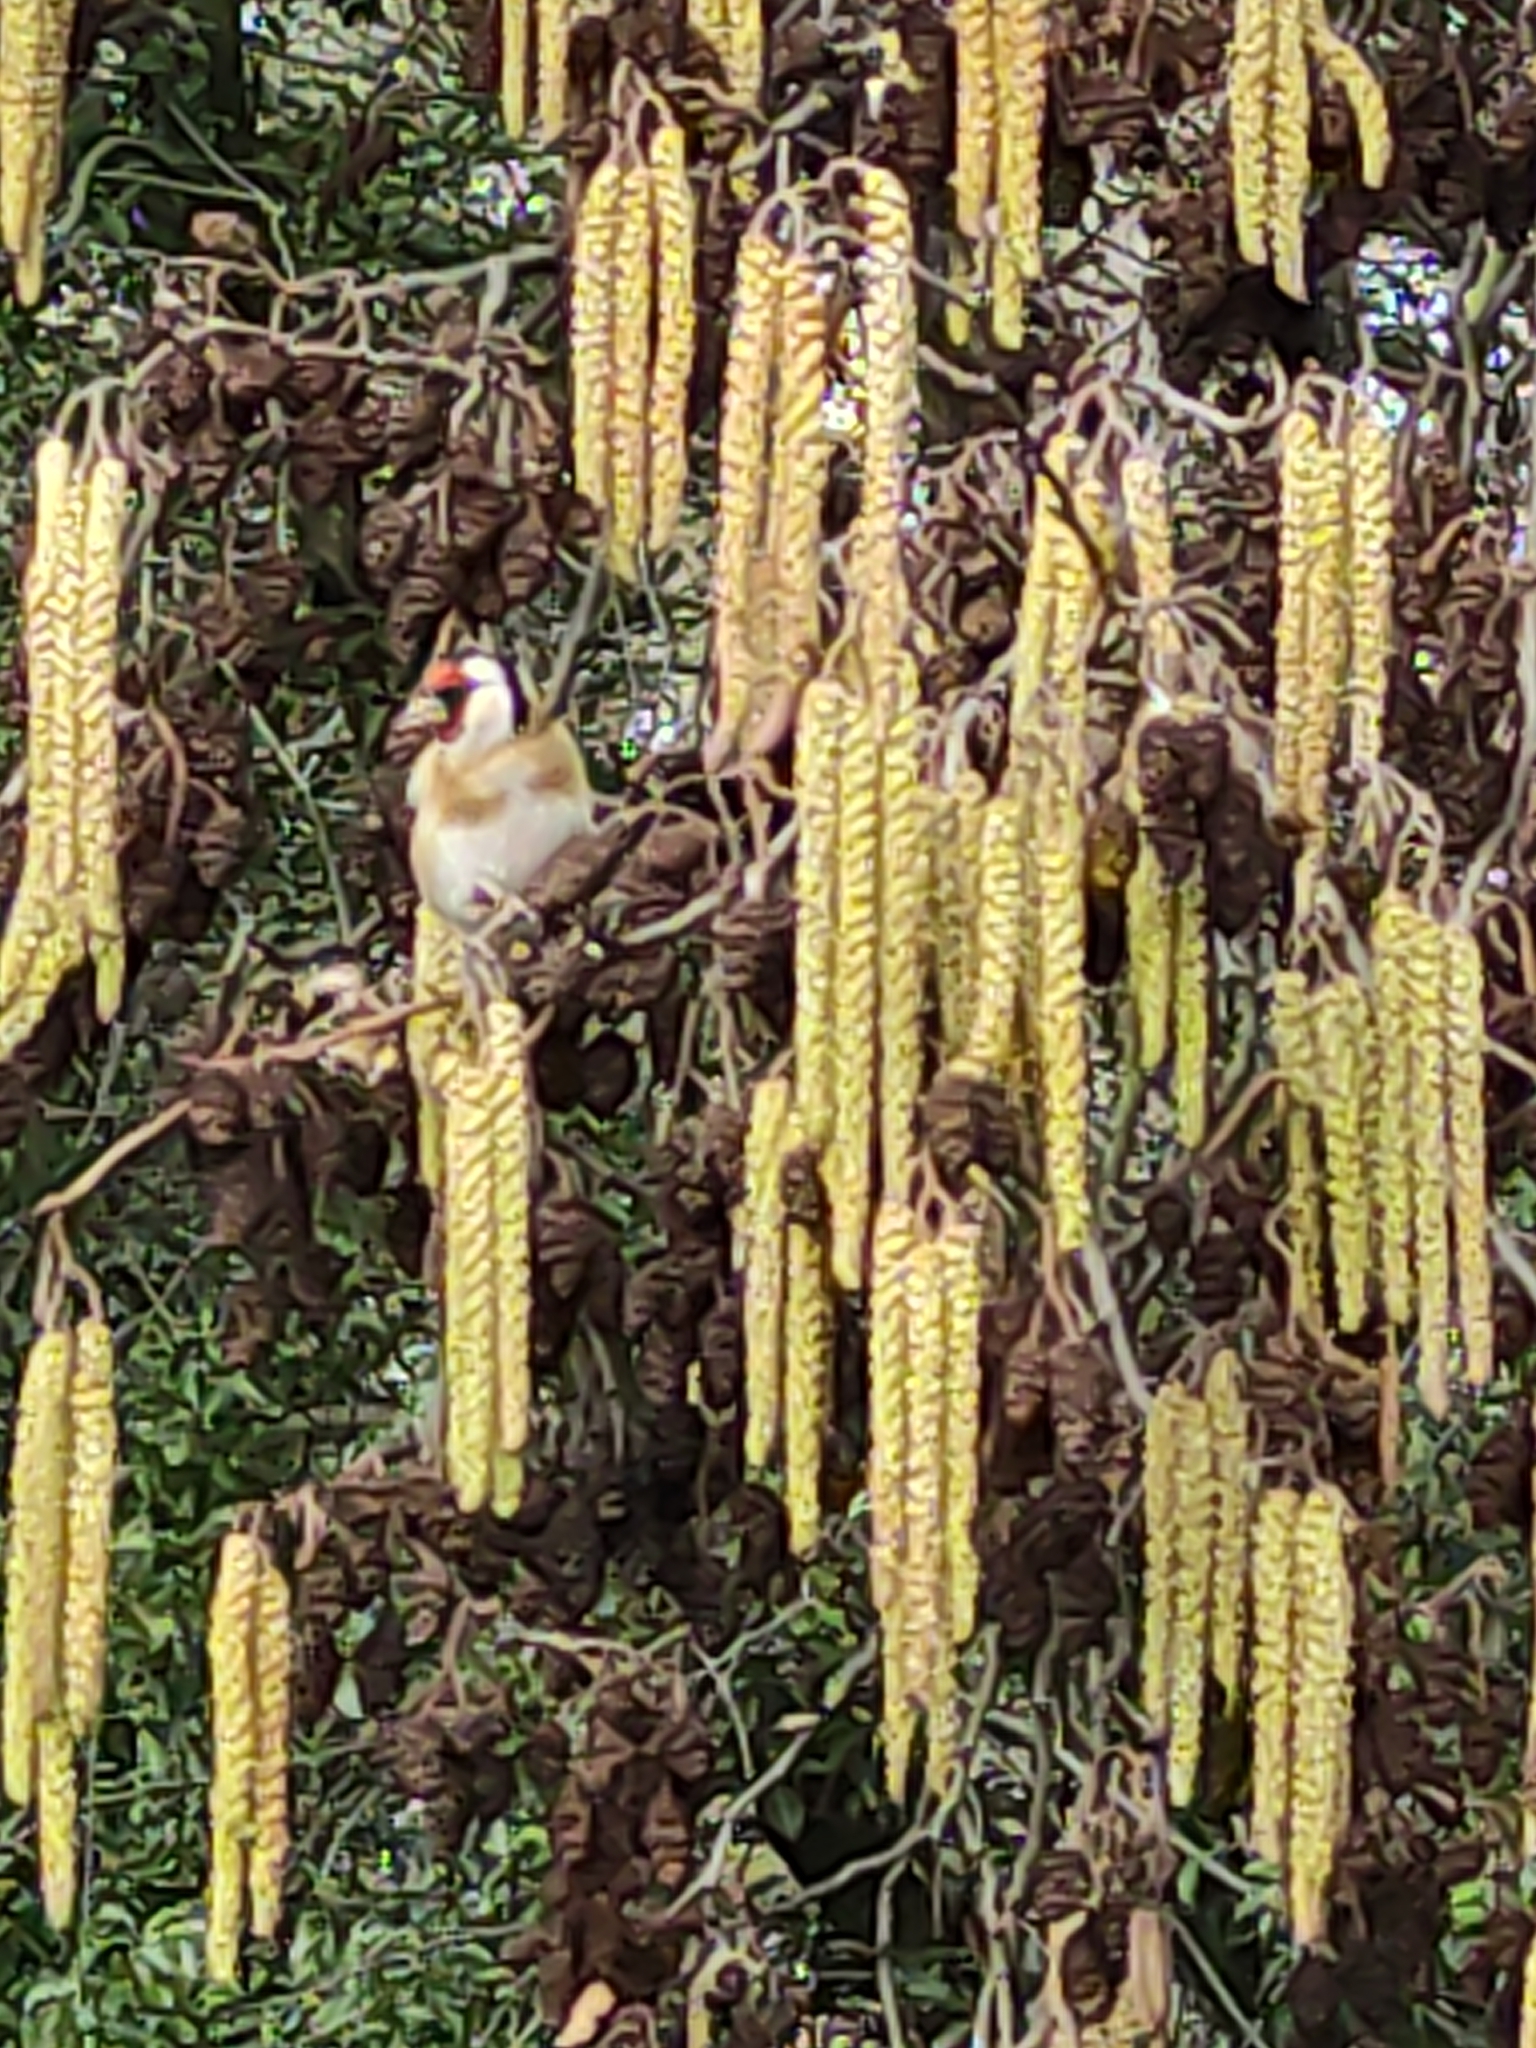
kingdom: Animalia
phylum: Chordata
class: Aves
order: Passeriformes
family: Fringillidae
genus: Carduelis
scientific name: Carduelis carduelis
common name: European goldfinch
